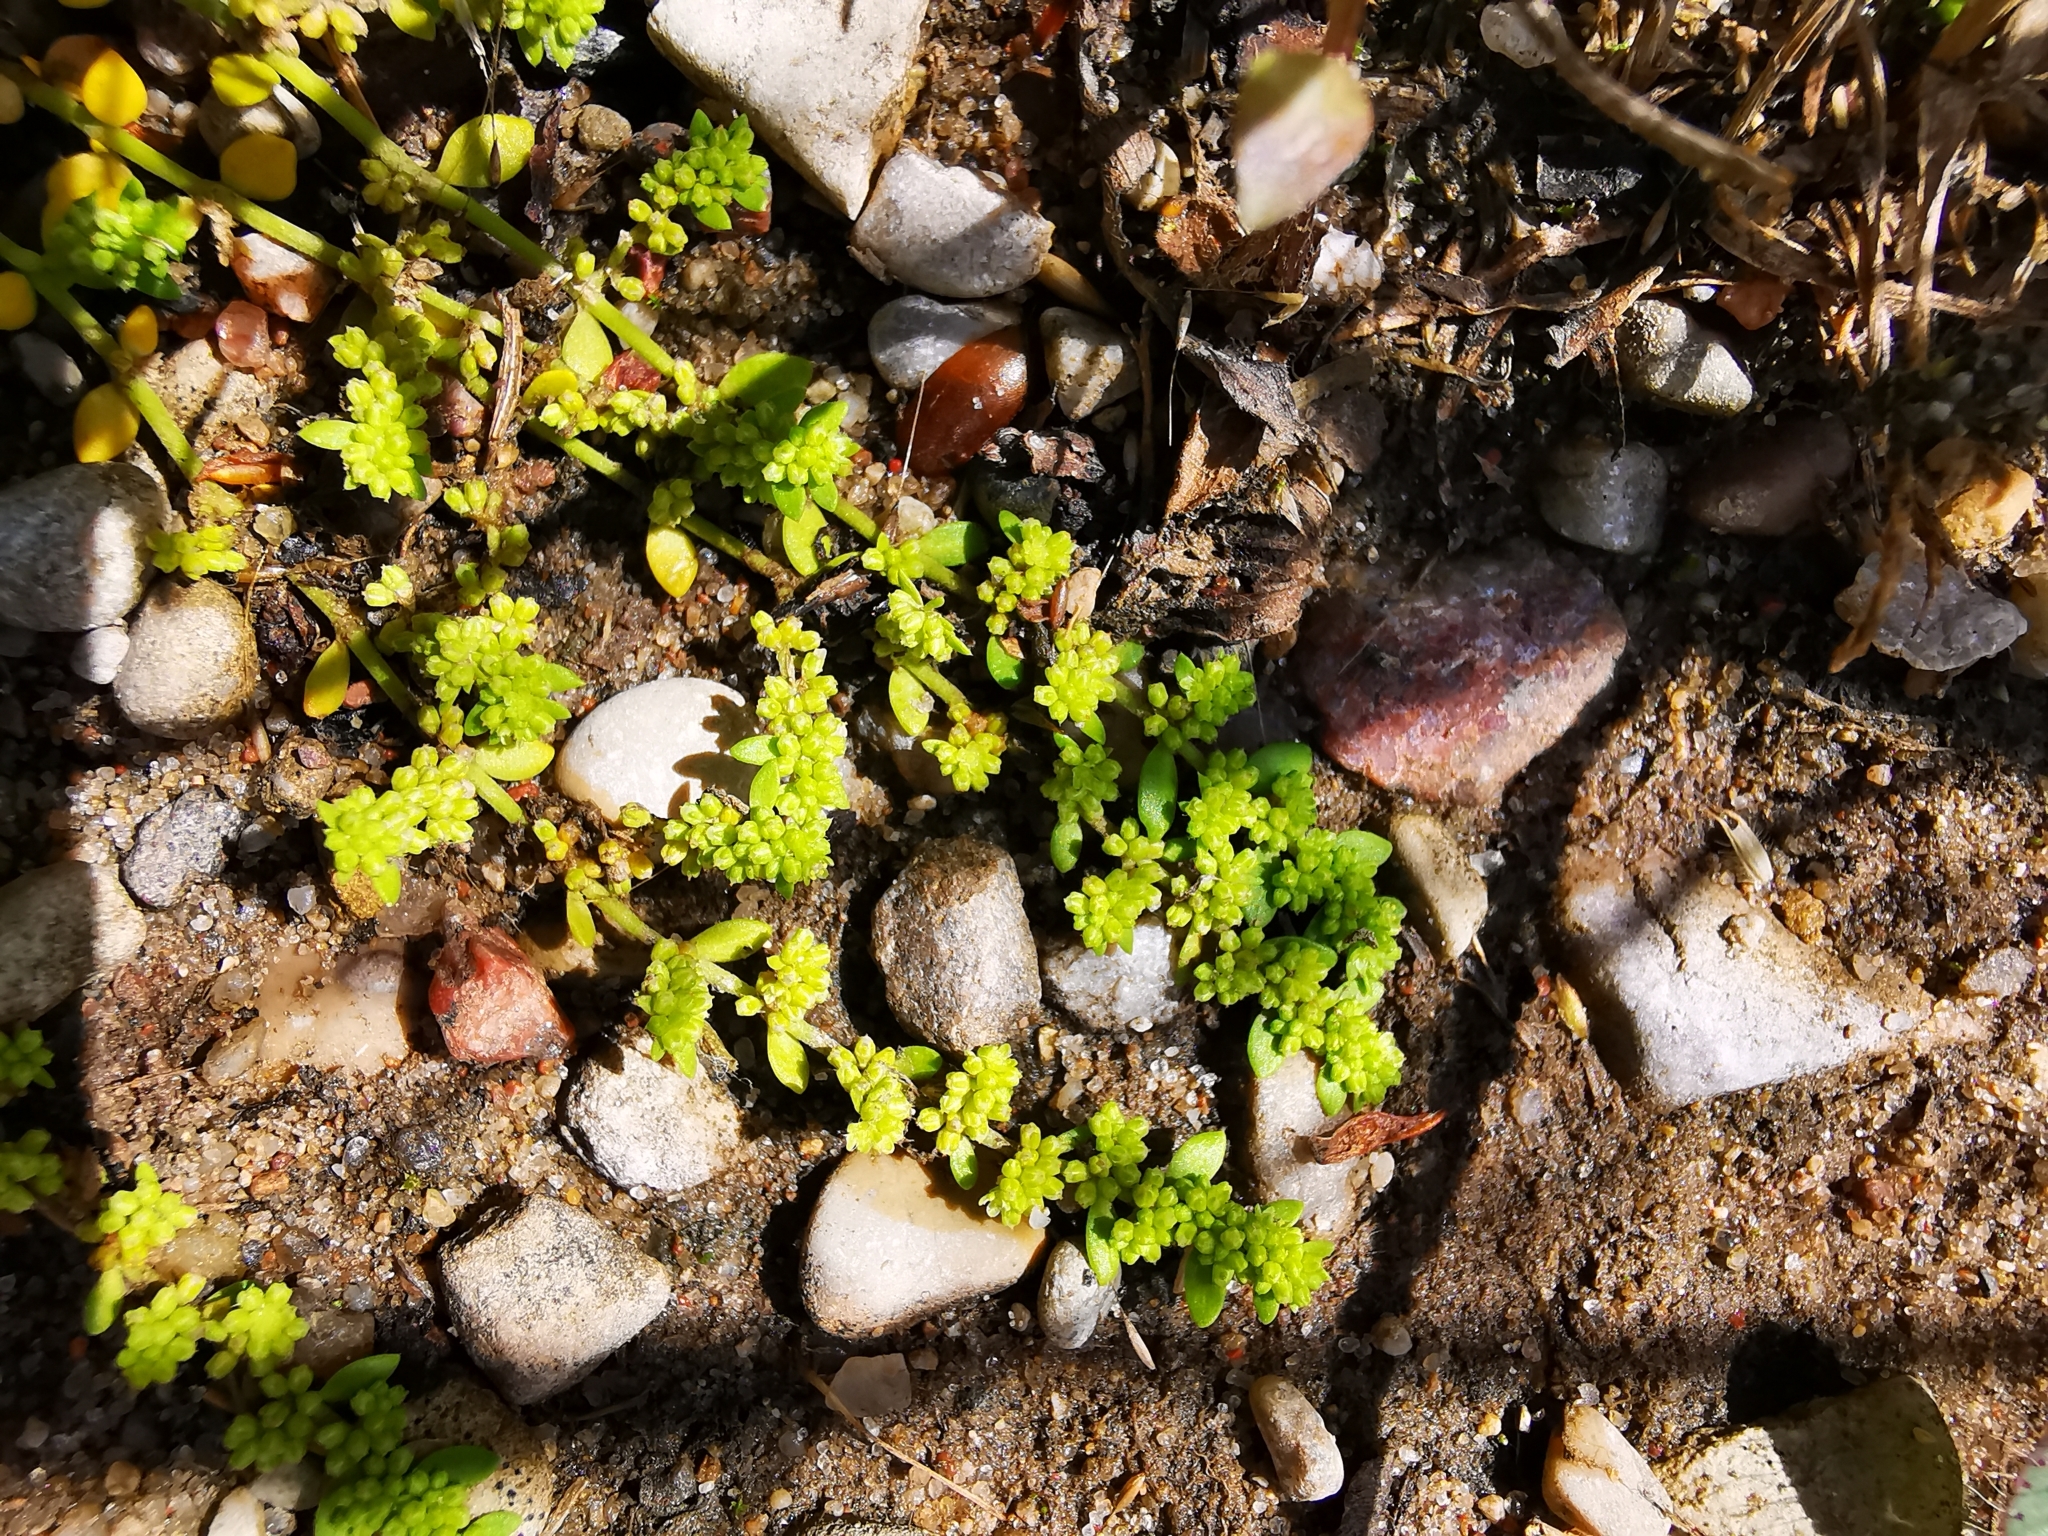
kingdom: Plantae
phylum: Tracheophyta
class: Magnoliopsida
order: Caryophyllales
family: Caryophyllaceae
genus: Herniaria
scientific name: Herniaria glabra
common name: Smooth rupturewort
